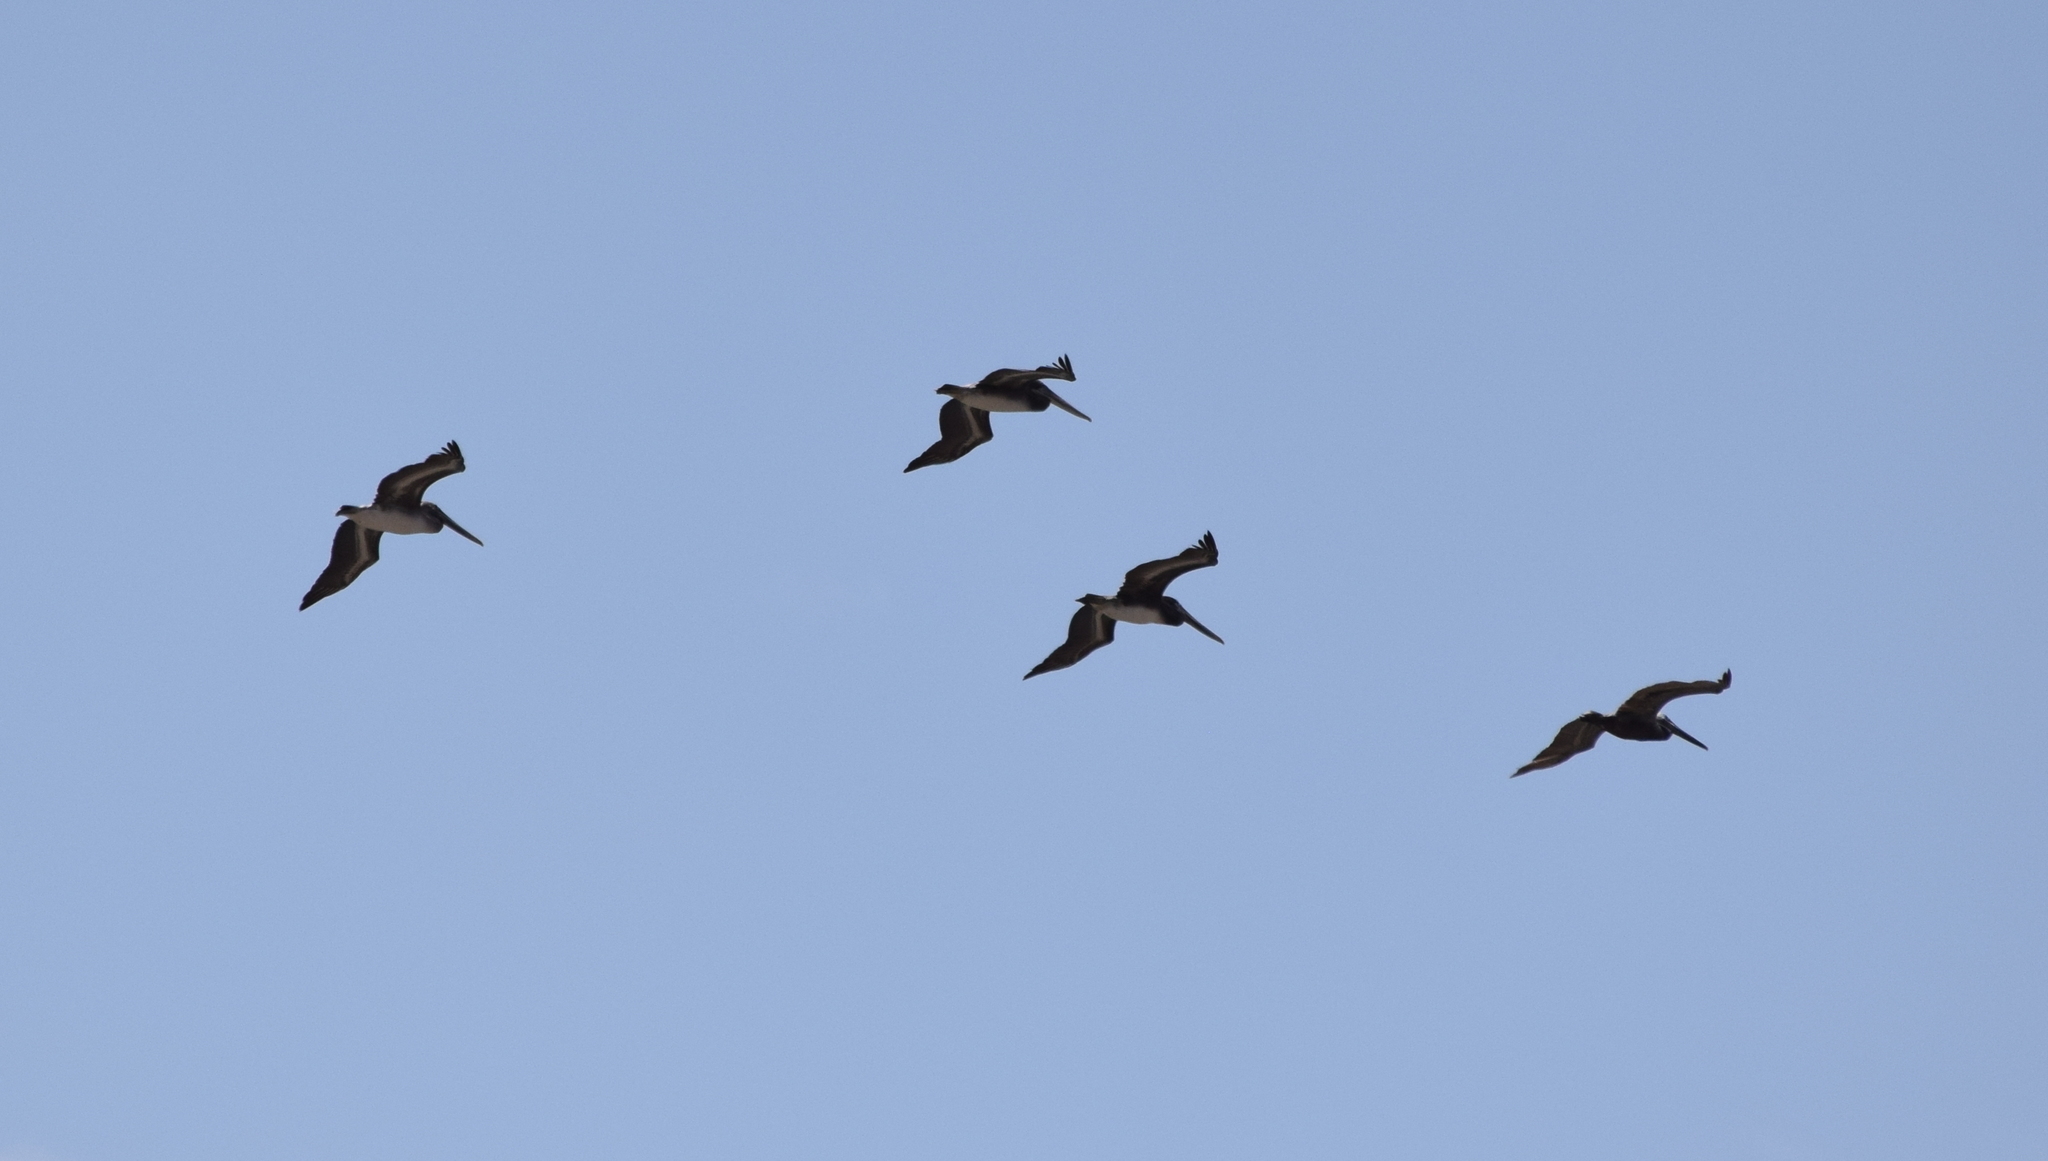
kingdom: Animalia
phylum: Chordata
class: Aves
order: Pelecaniformes
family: Pelecanidae
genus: Pelecanus
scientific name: Pelecanus occidentalis
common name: Brown pelican
